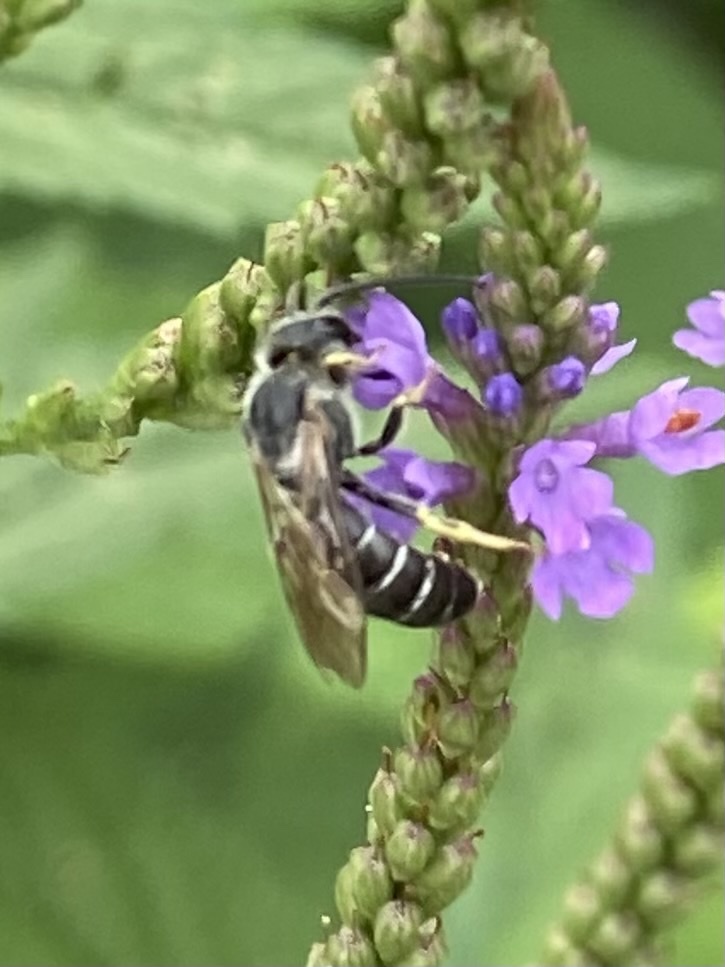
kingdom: Animalia
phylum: Arthropoda
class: Insecta
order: Hymenoptera
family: Halictidae
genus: Halictus
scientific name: Halictus rubicundus
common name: Orange-legged furrow bee
